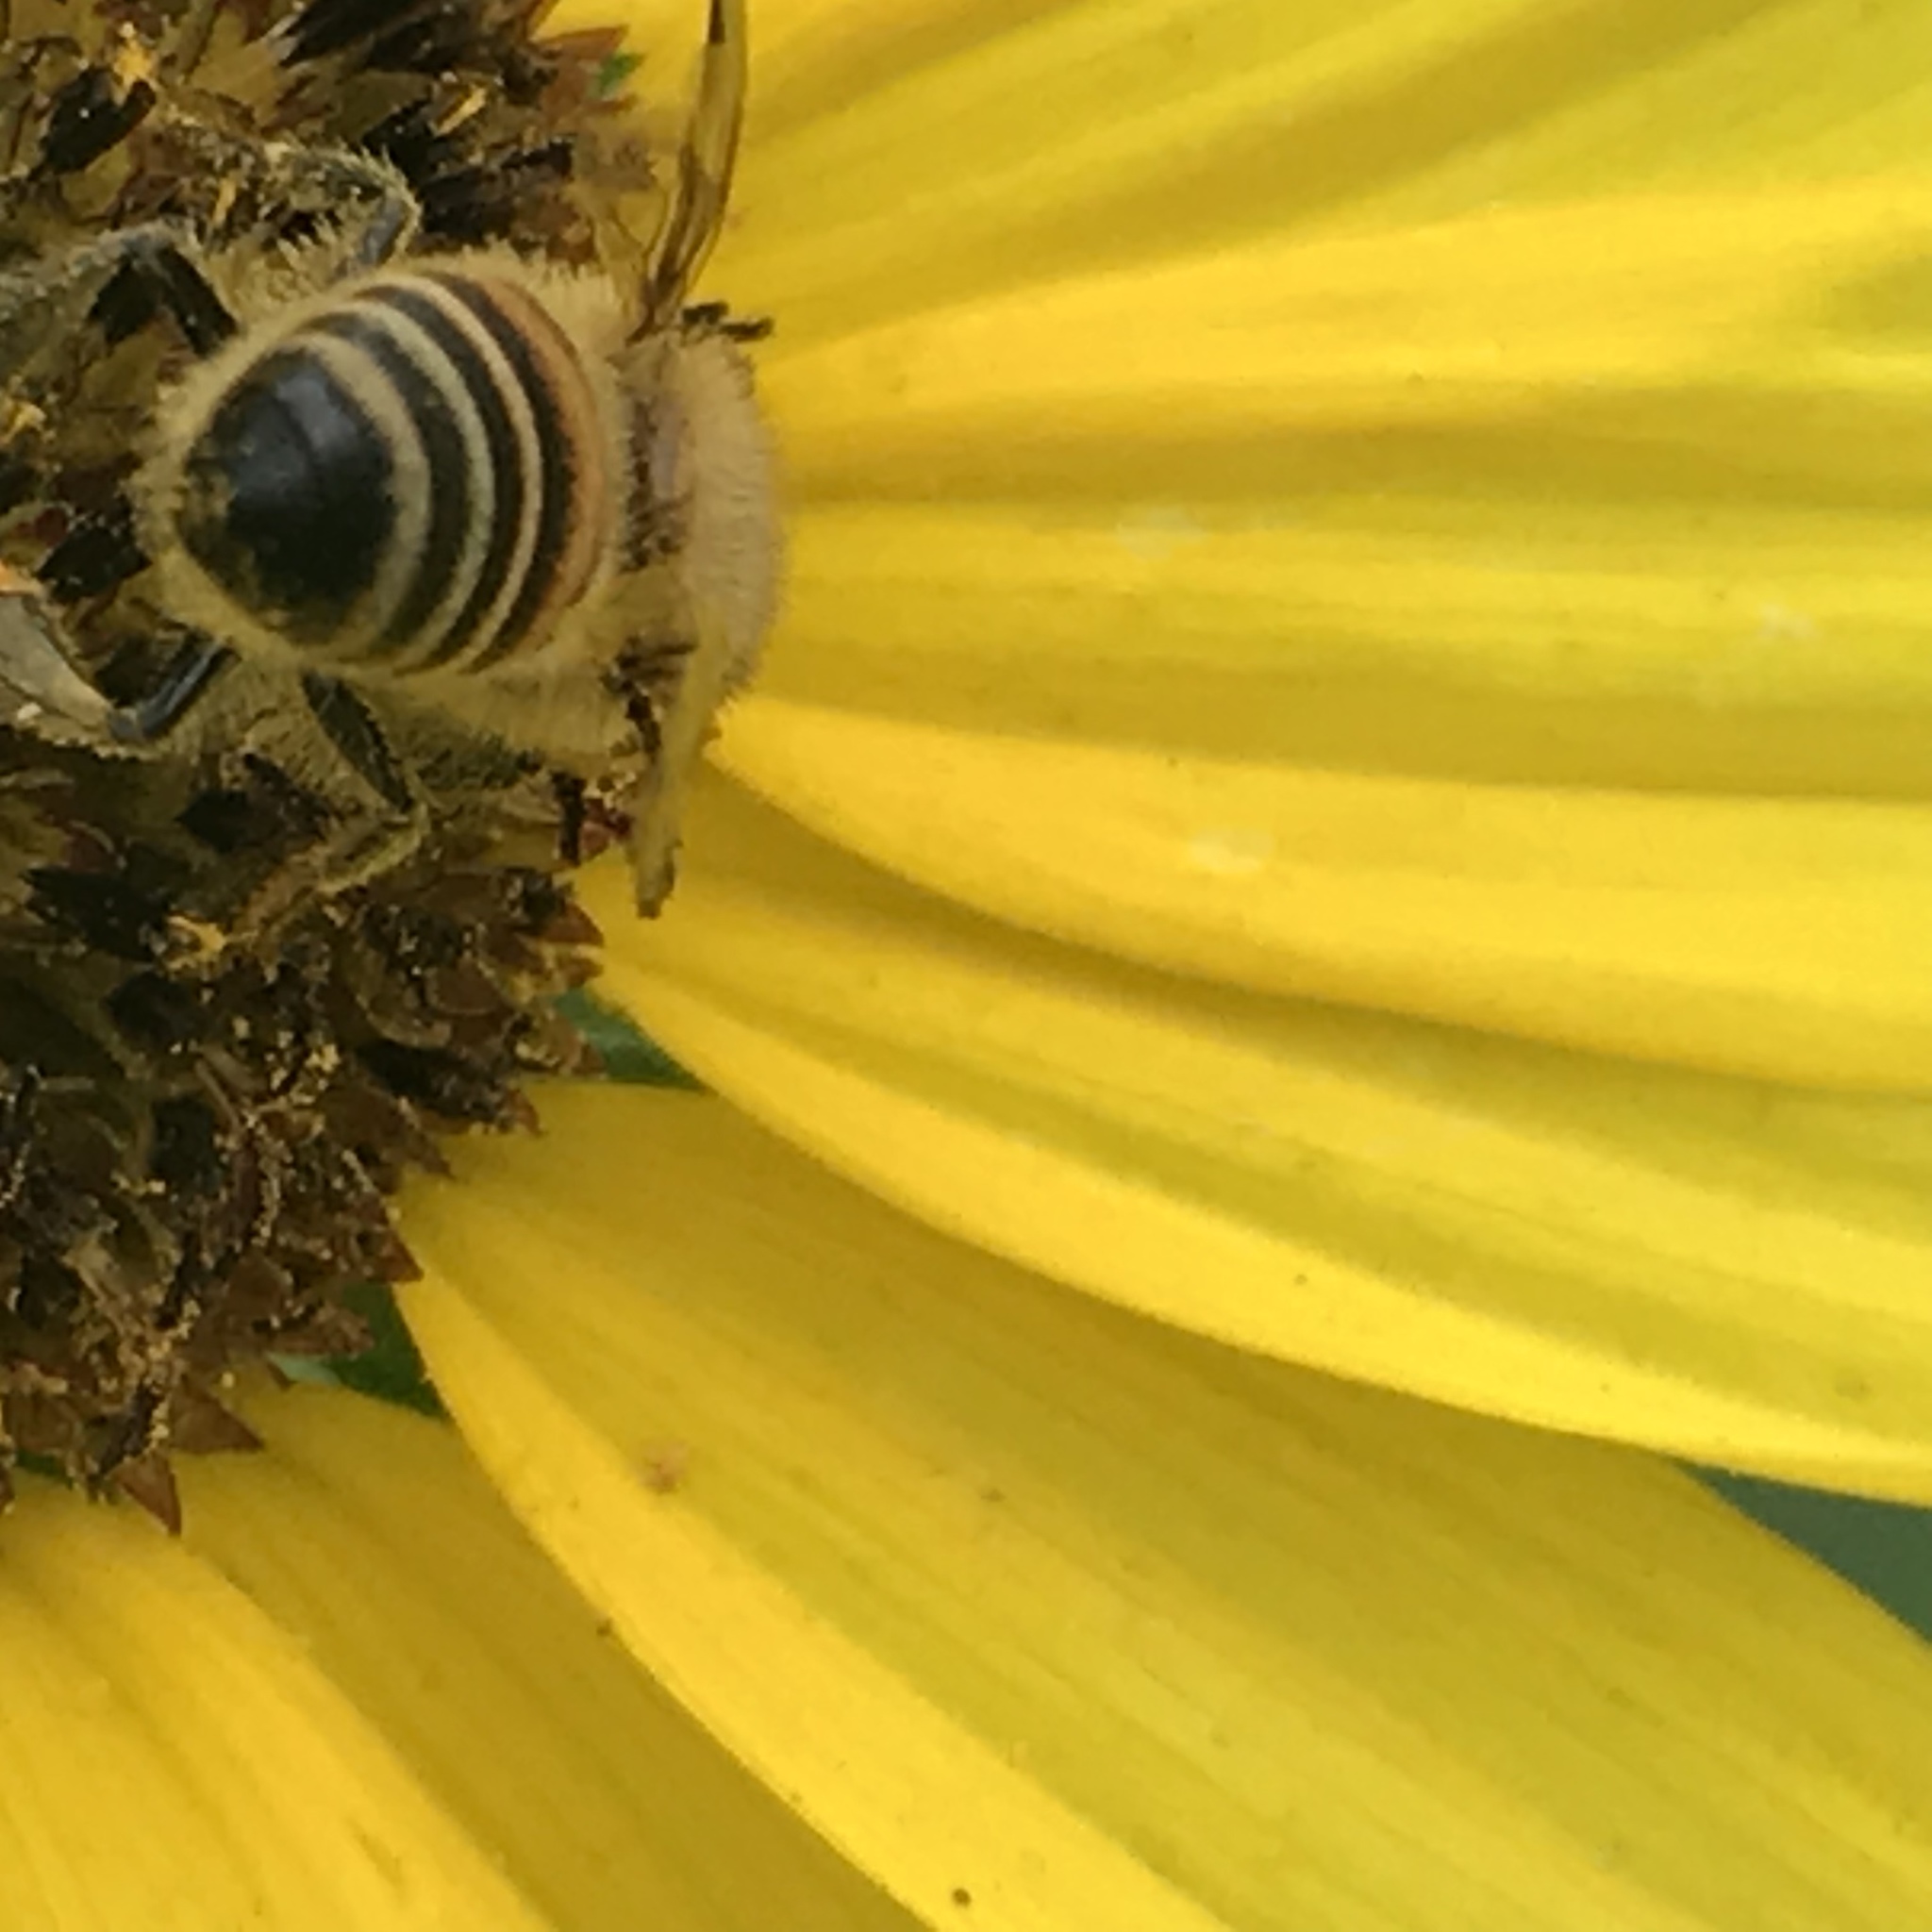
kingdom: Animalia
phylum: Arthropoda
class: Insecta
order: Hymenoptera
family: Apidae
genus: Apis
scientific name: Apis mellifera
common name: Honey bee
